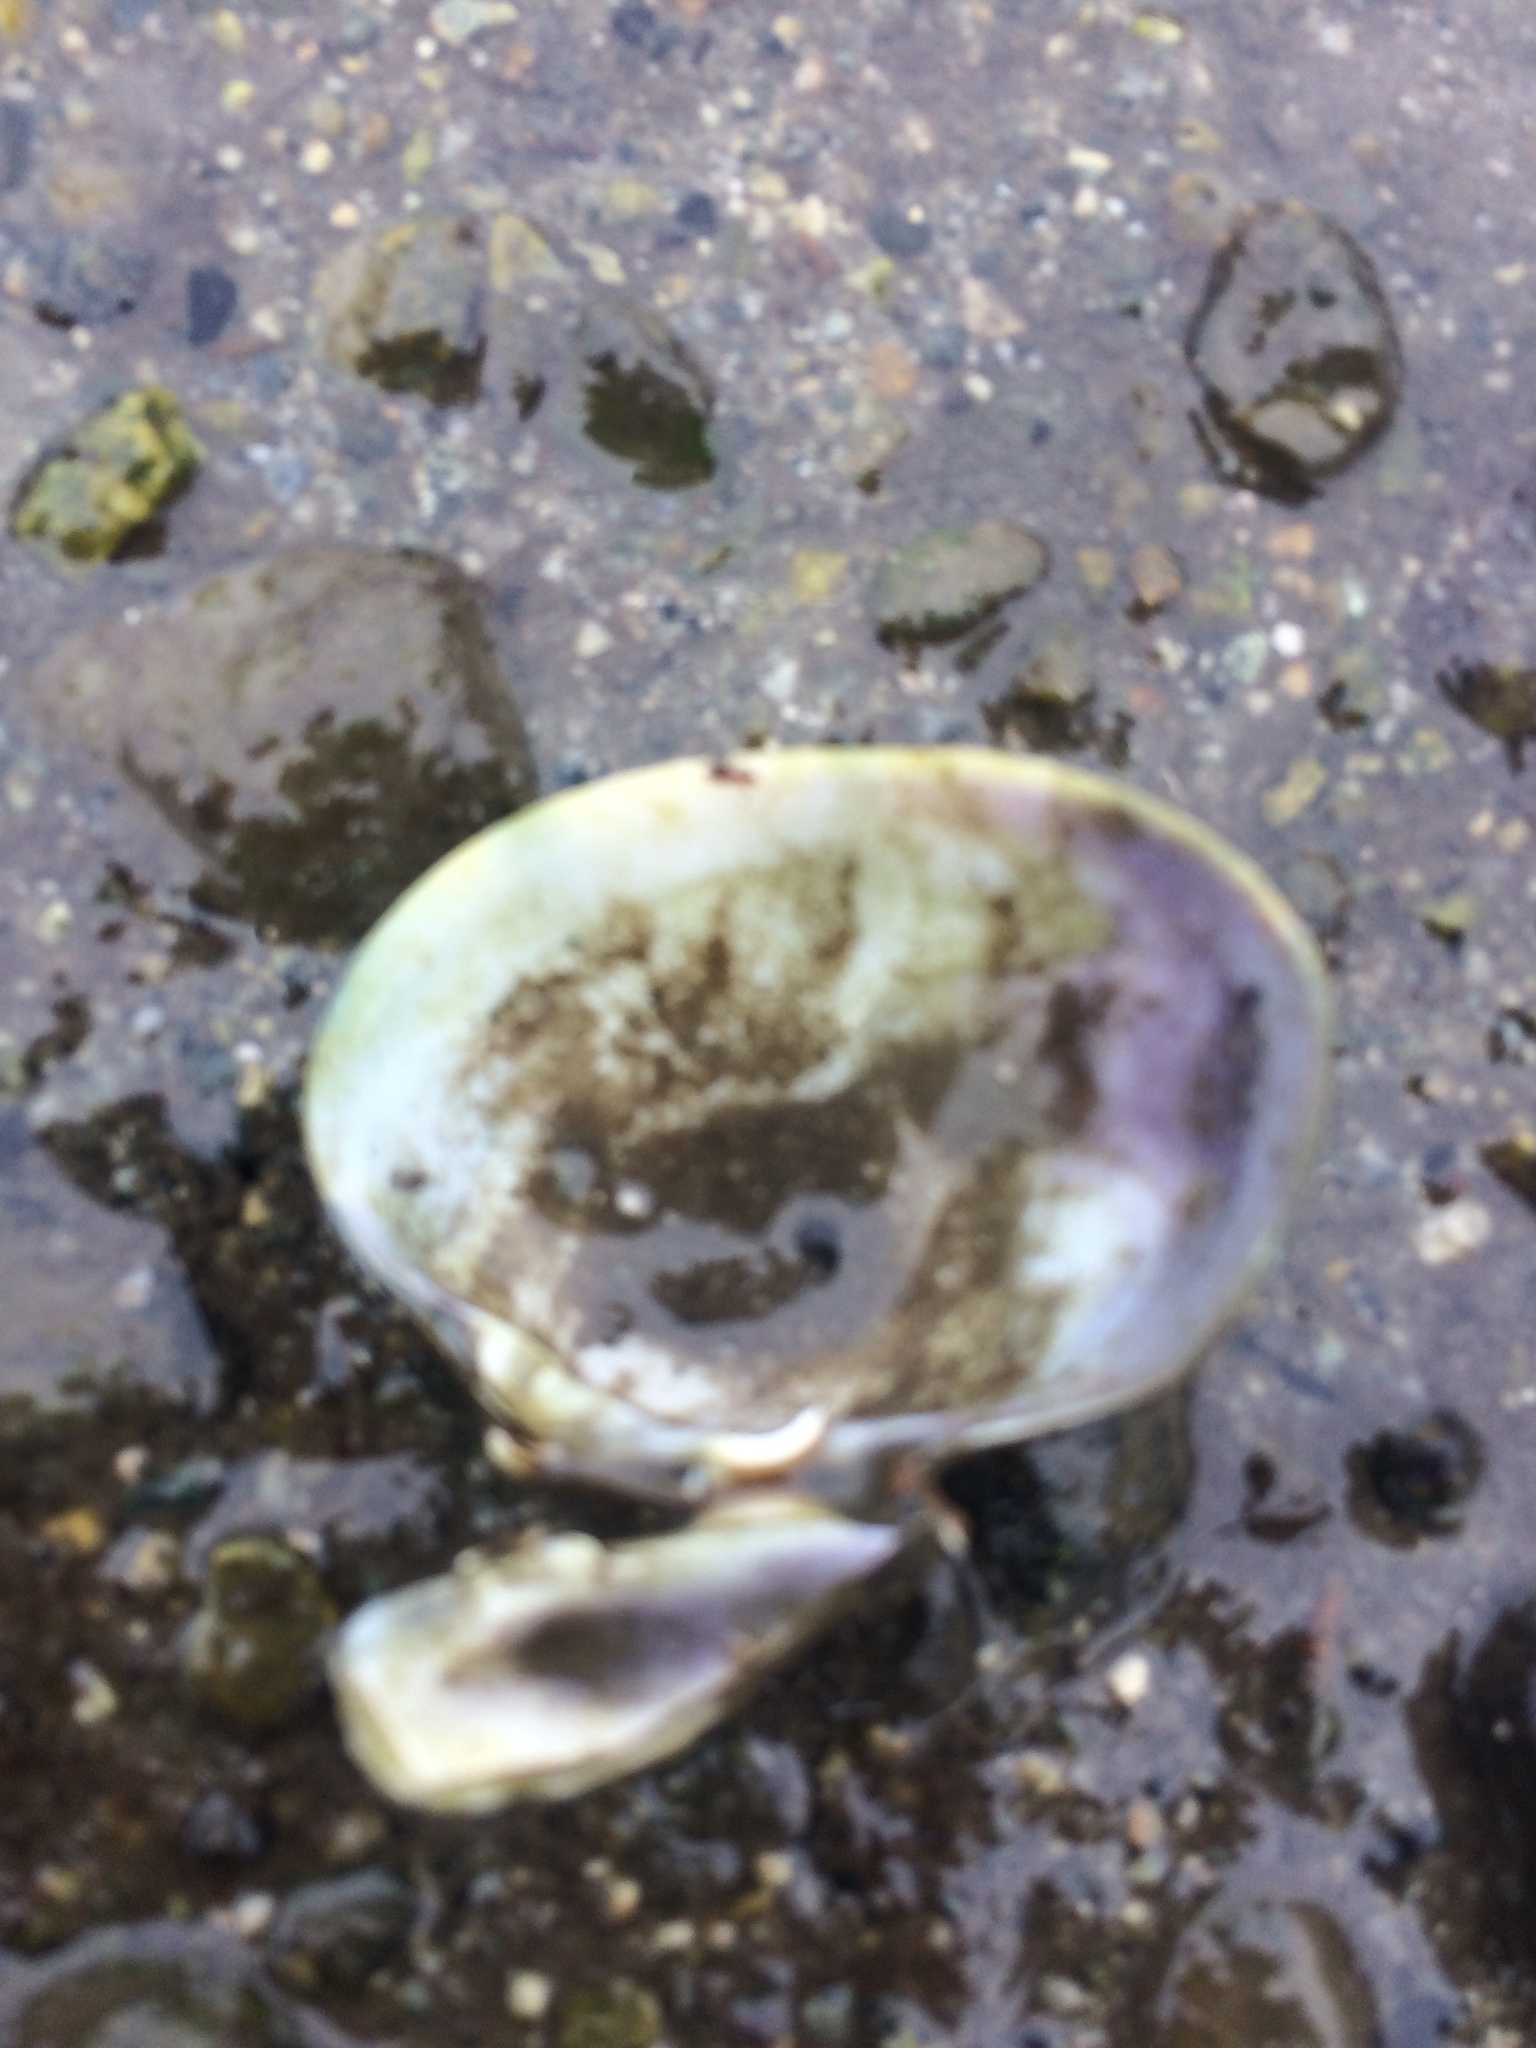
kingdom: Animalia
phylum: Mollusca
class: Bivalvia
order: Venerida
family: Veneridae
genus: Ruditapes
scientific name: Ruditapes philippinarum
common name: Manila clam
